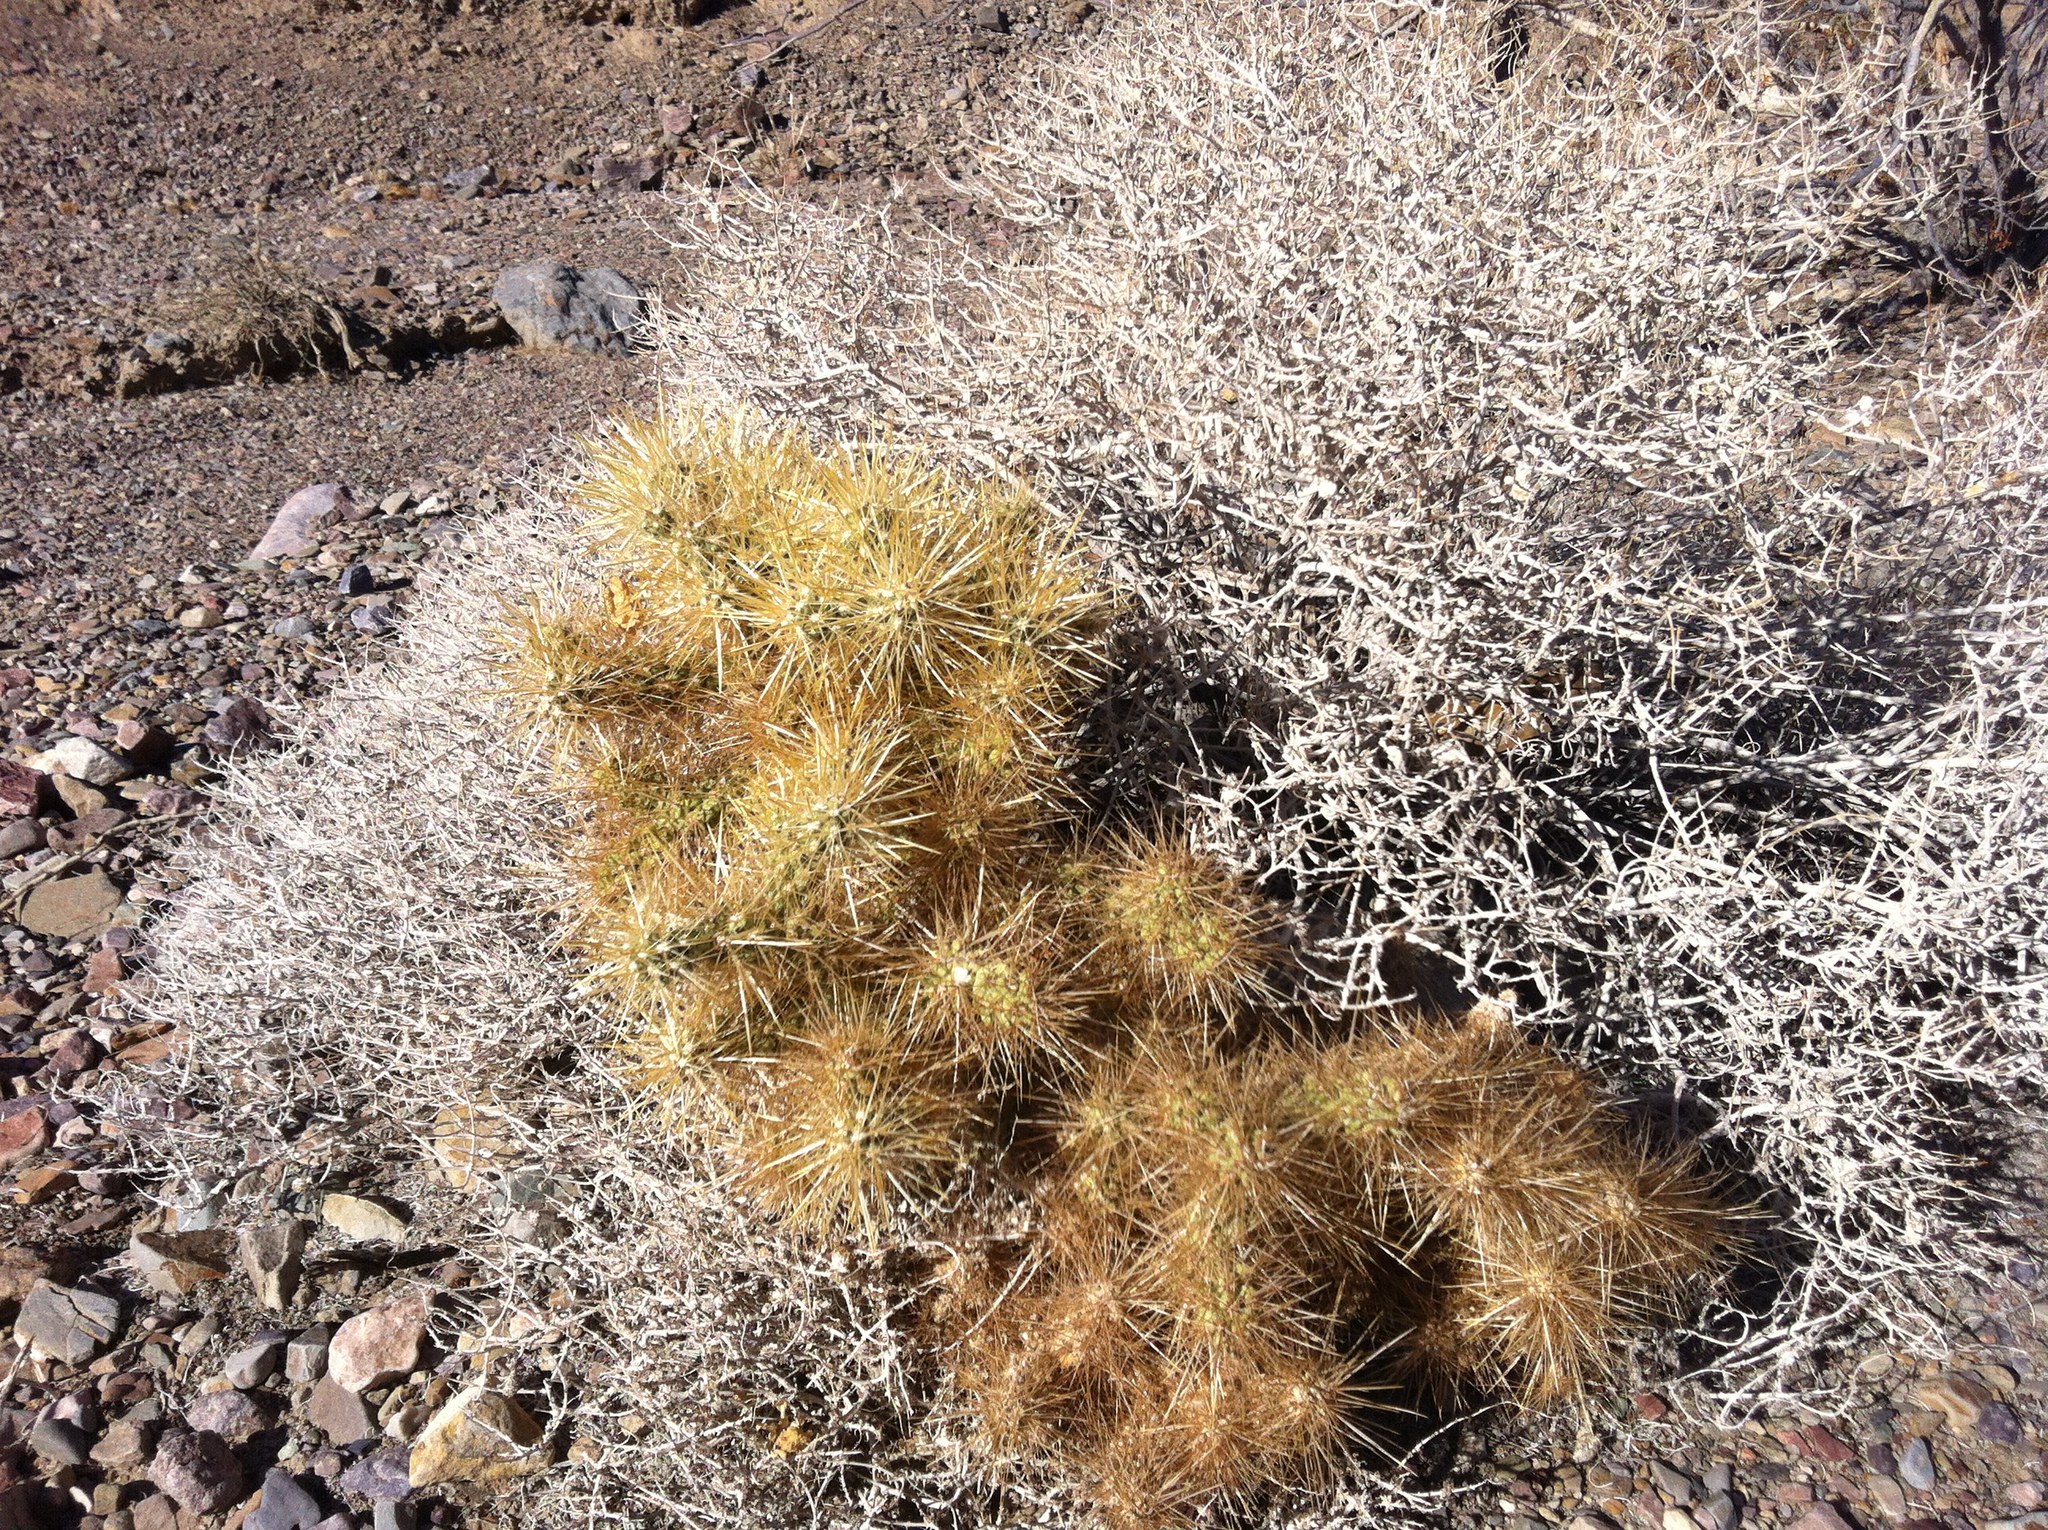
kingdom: Plantae
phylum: Tracheophyta
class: Magnoliopsida
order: Caryophyllales
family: Cactaceae
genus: Cylindropuntia
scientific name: Cylindropuntia echinocarpa
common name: Ground cholla
